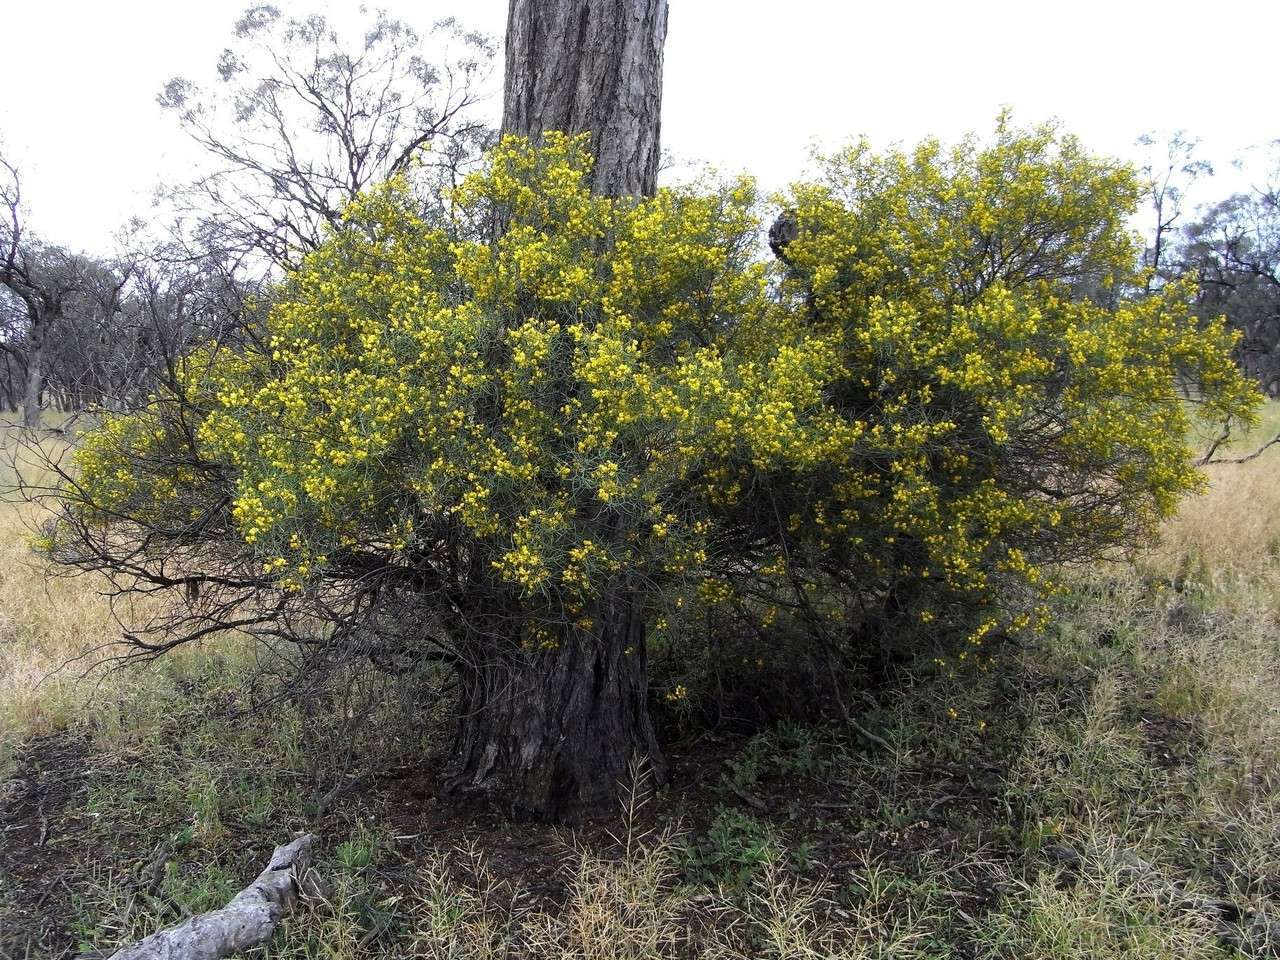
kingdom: Plantae
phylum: Tracheophyta
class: Magnoliopsida
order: Fabales
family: Fabaceae
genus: Senna
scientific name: Senna artemisioides
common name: Burnt-leaved acacia
